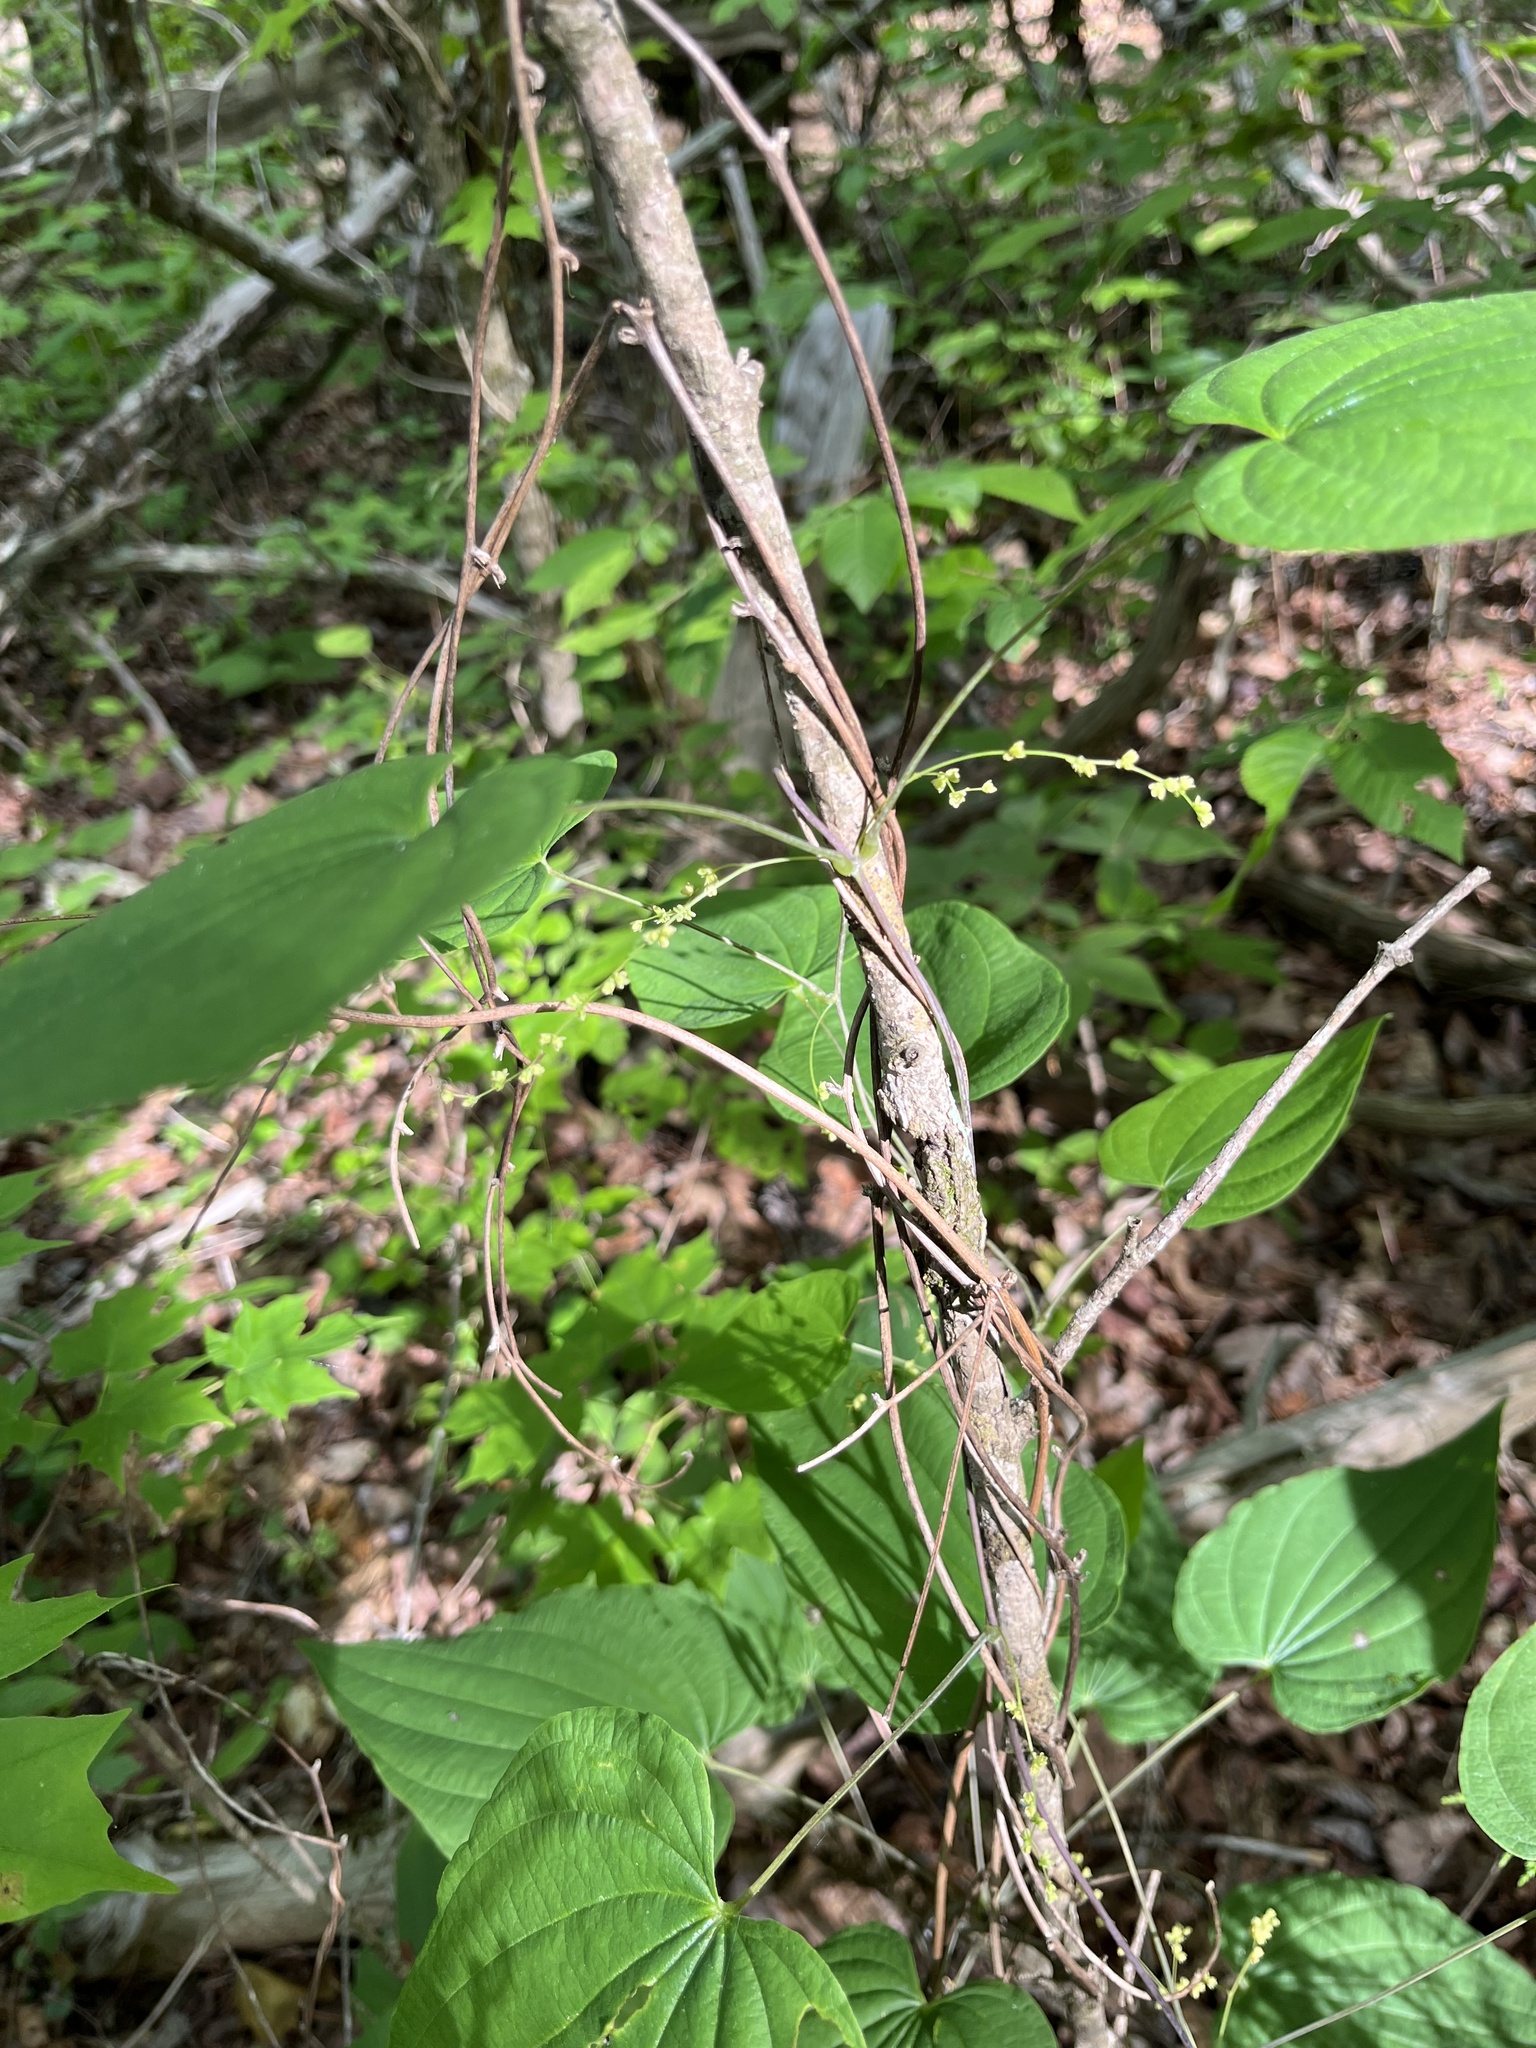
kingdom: Plantae
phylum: Tracheophyta
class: Liliopsida
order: Dioscoreales
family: Dioscoreaceae
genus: Dioscorea
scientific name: Dioscorea villosa
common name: Wild yam
